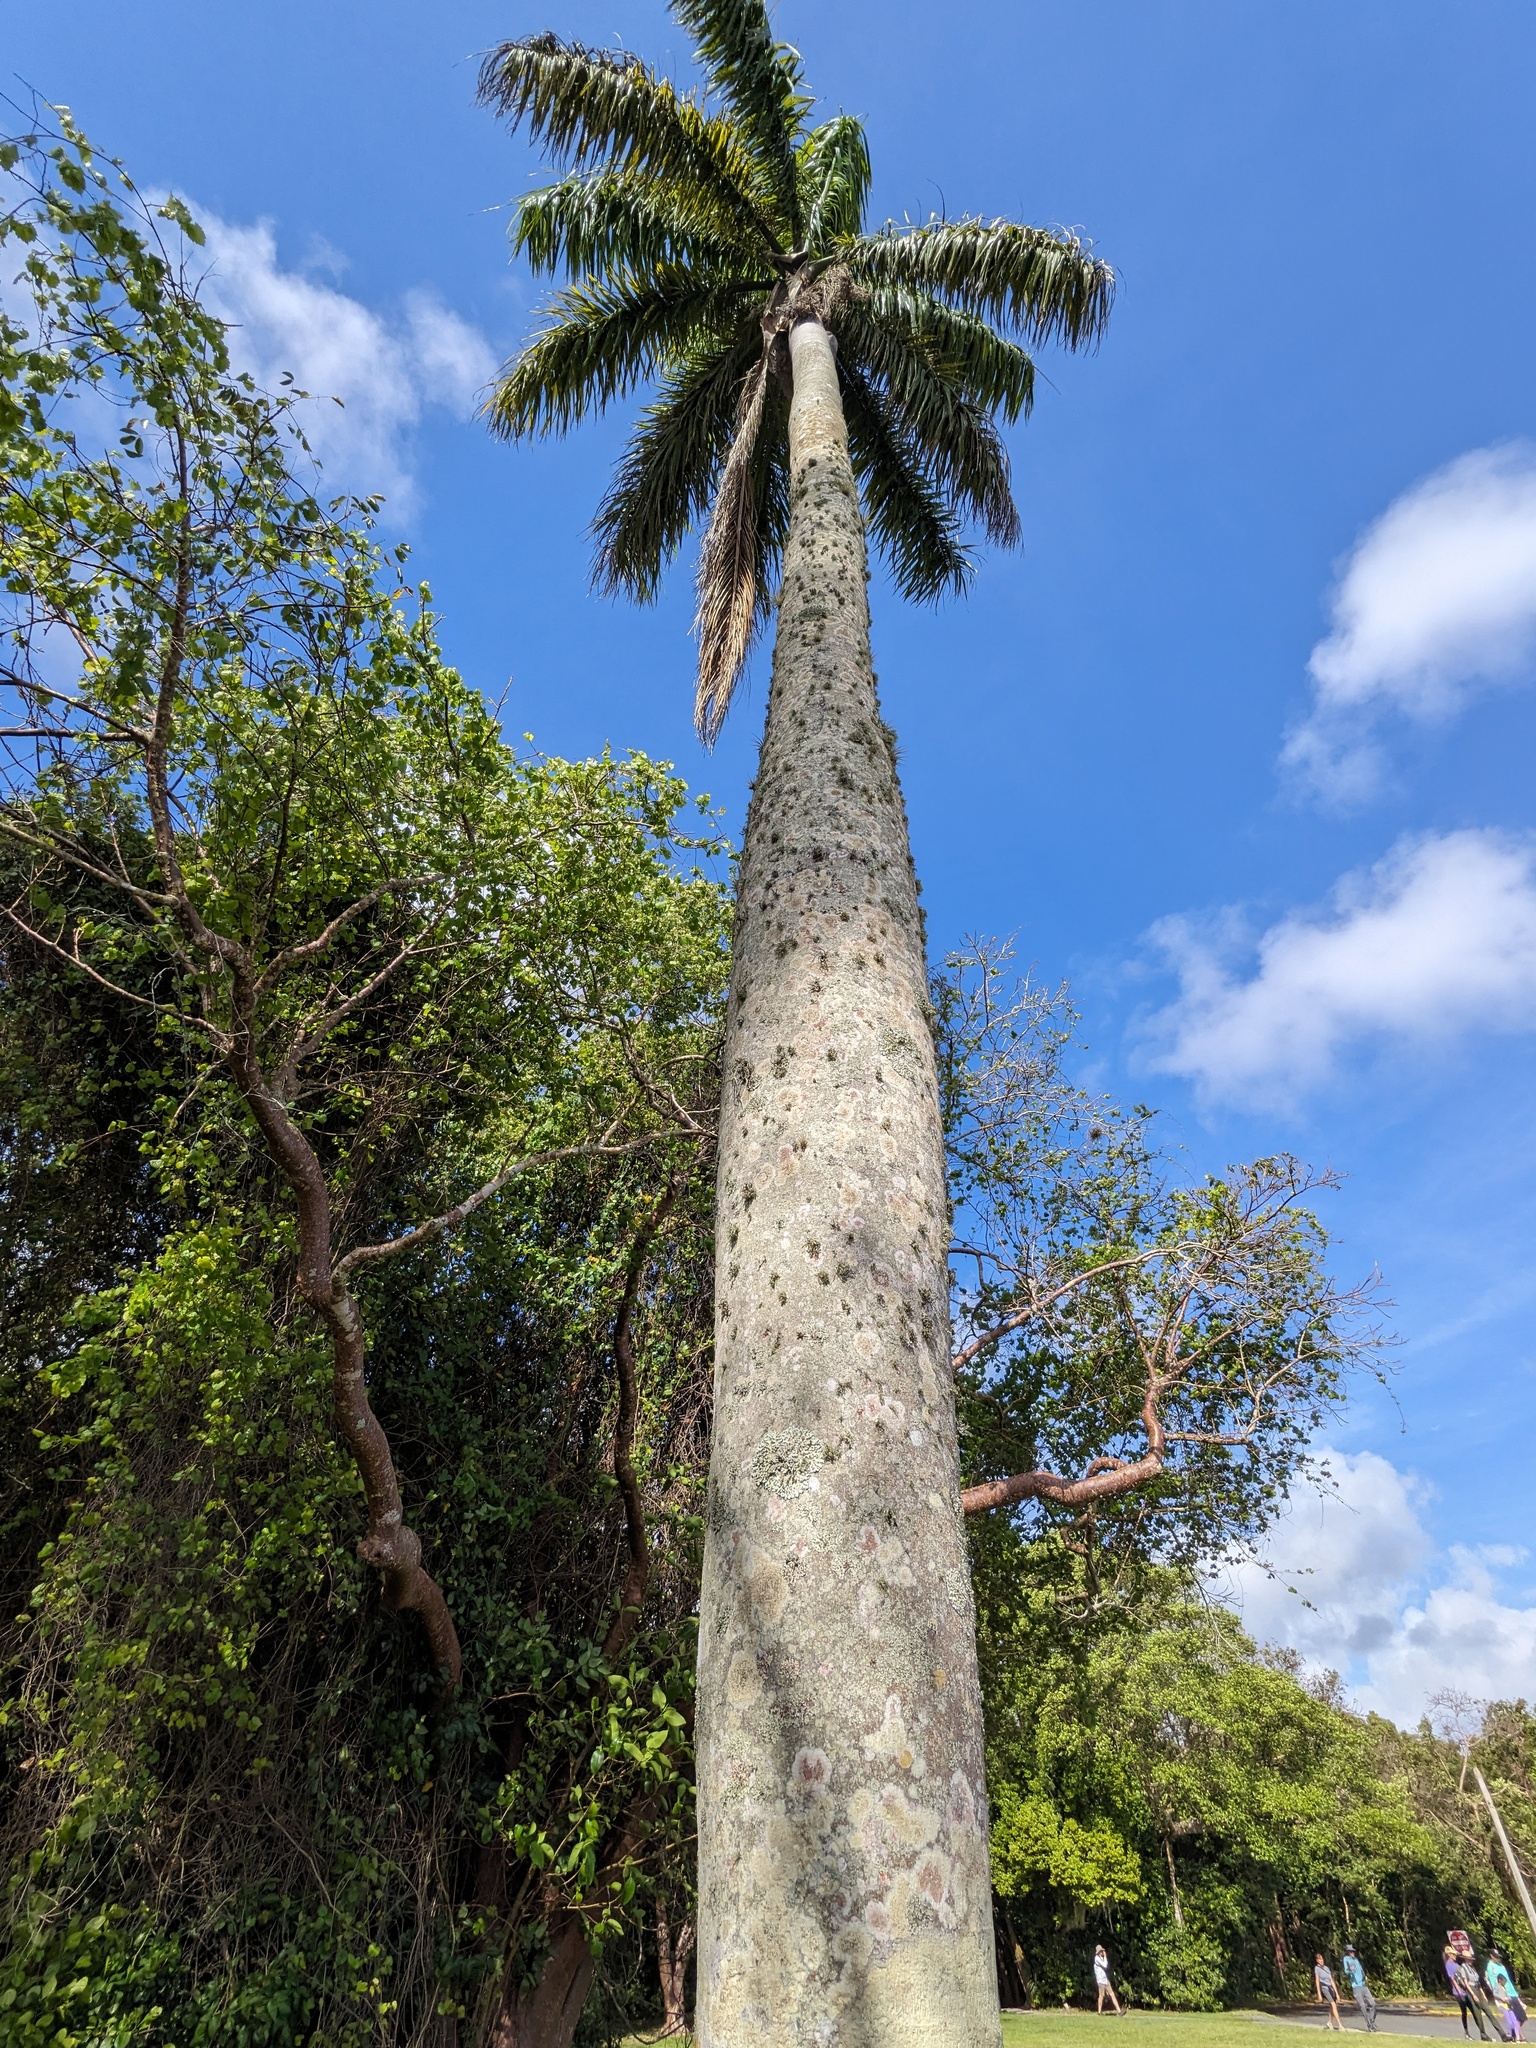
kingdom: Plantae
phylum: Tracheophyta
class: Liliopsida
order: Arecales
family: Arecaceae
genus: Roystonea
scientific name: Roystonea regia
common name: Florida royal palm
